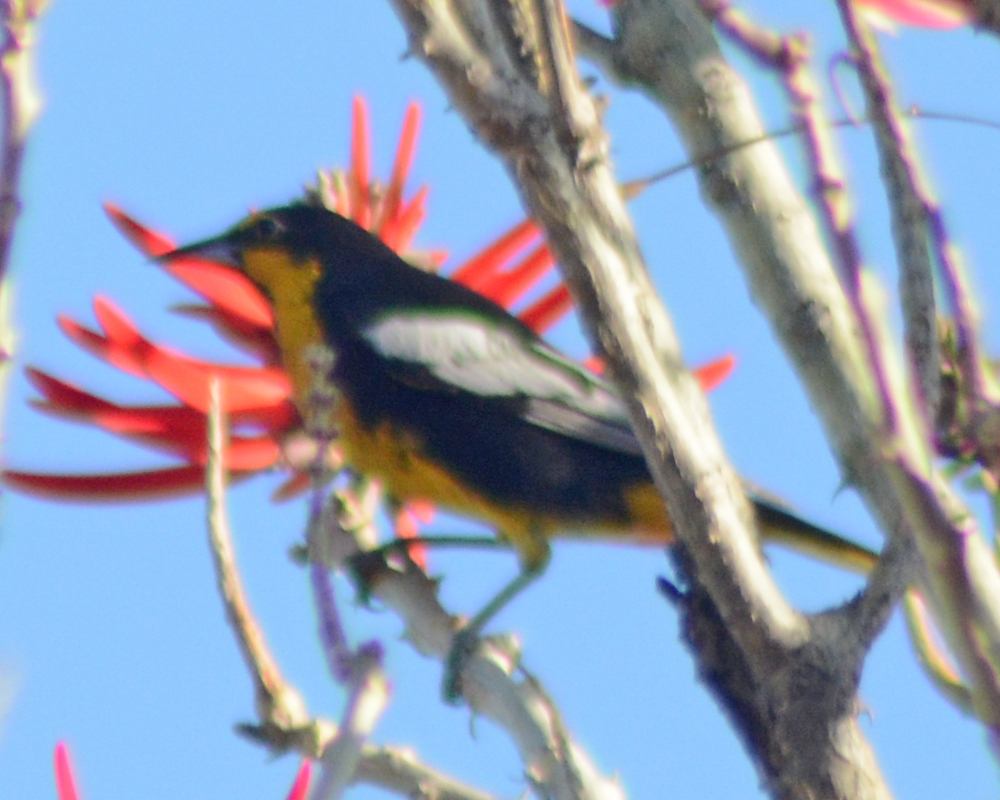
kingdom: Animalia
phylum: Chordata
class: Aves
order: Passeriformes
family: Icteridae
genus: Icterus
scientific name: Icterus abeillei
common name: Black-backed oriole
